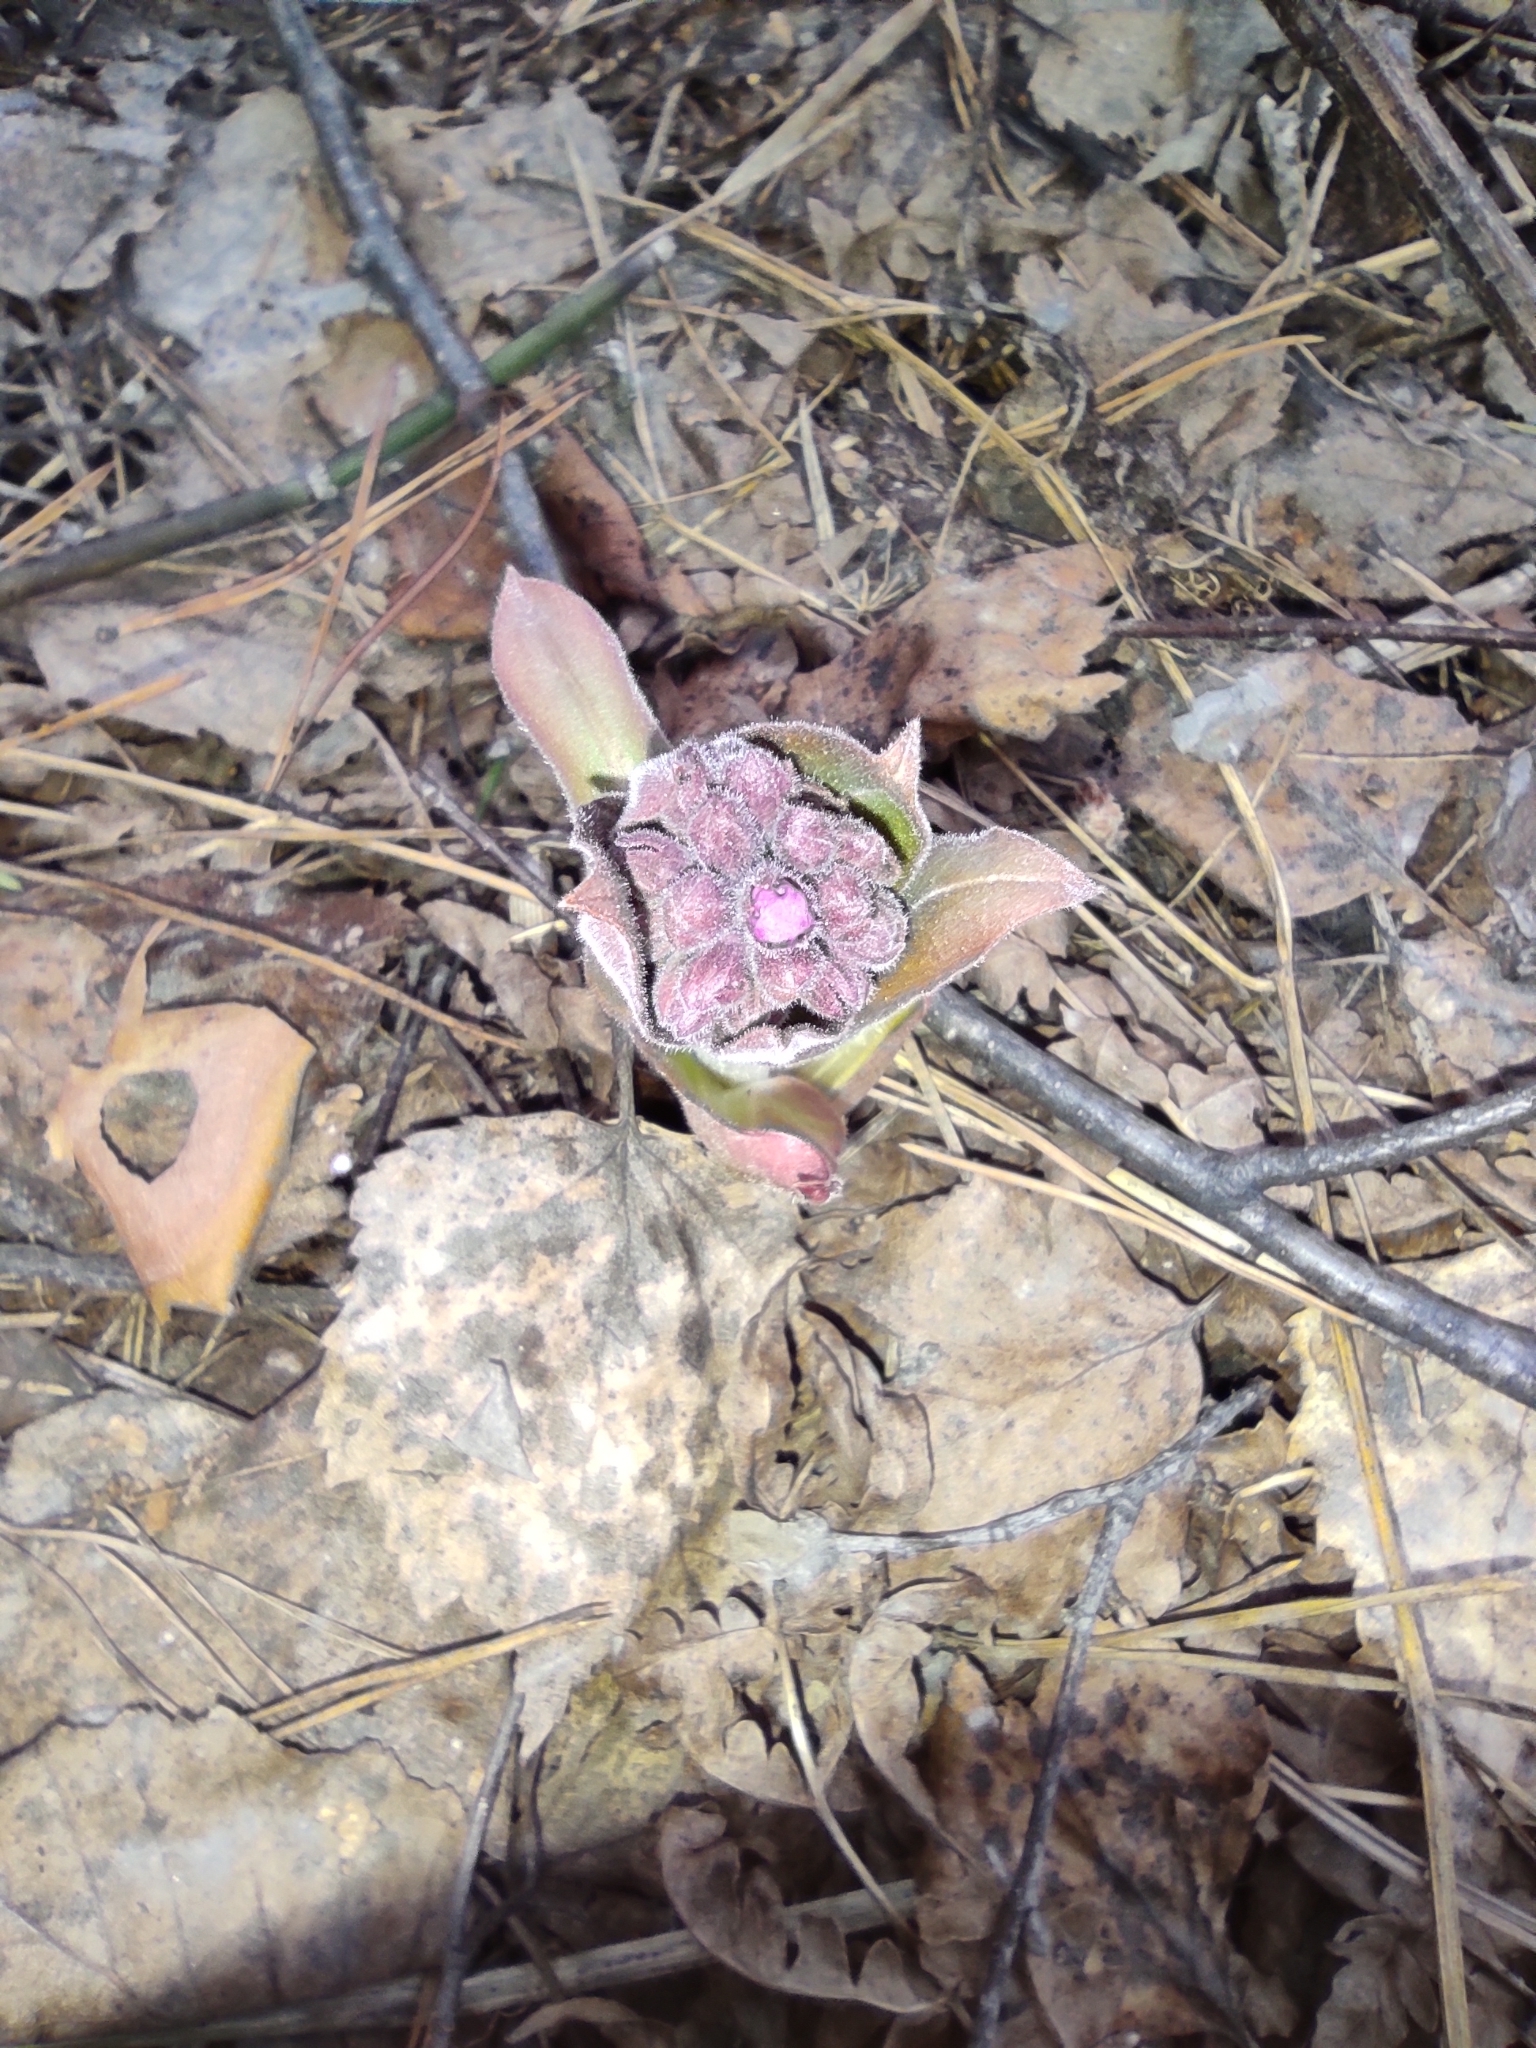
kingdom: Plantae
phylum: Tracheophyta
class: Magnoliopsida
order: Boraginales
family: Boraginaceae
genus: Pulmonaria
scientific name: Pulmonaria mollis
